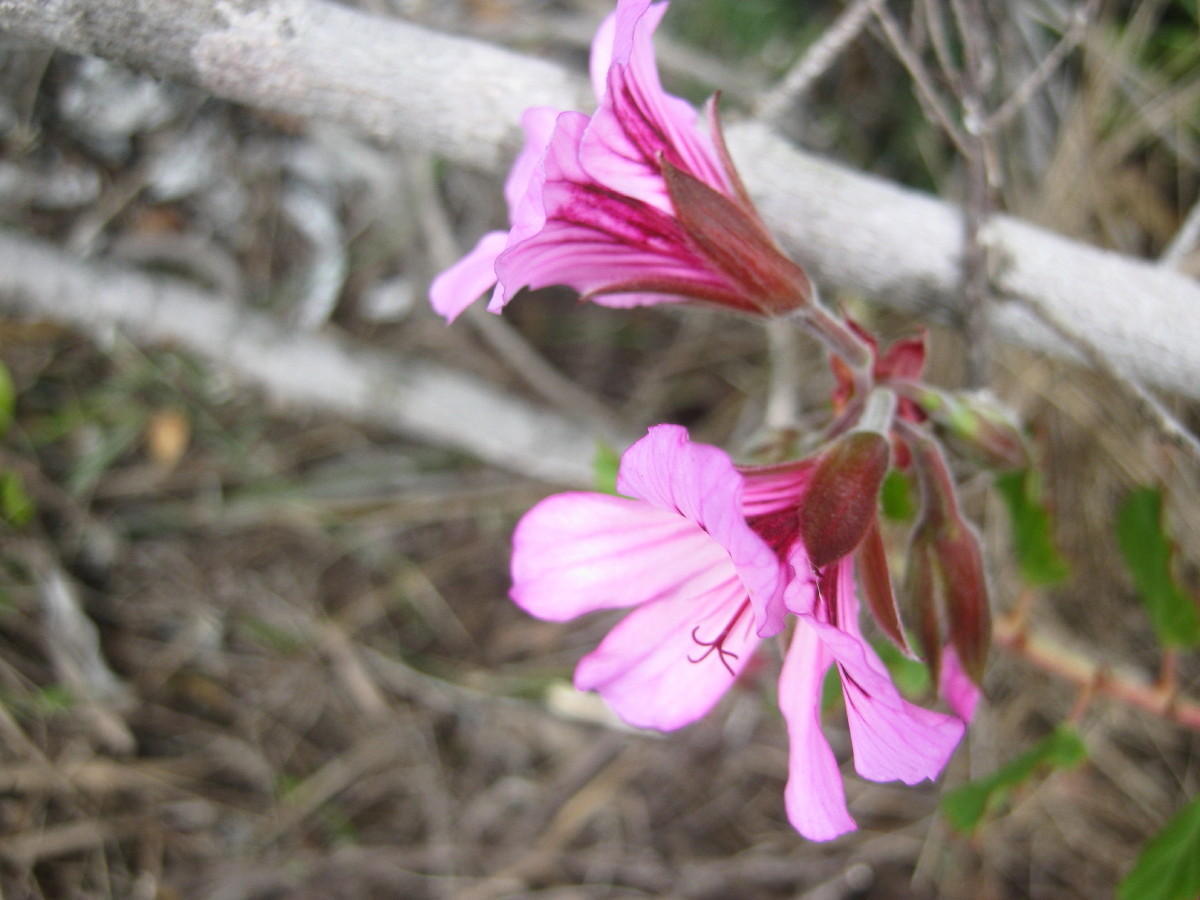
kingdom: Plantae
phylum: Tracheophyta
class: Magnoliopsida
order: Geraniales
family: Geraniaceae
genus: Pelargonium
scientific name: Pelargonium betulinum
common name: Birch-leaf pelargonium
